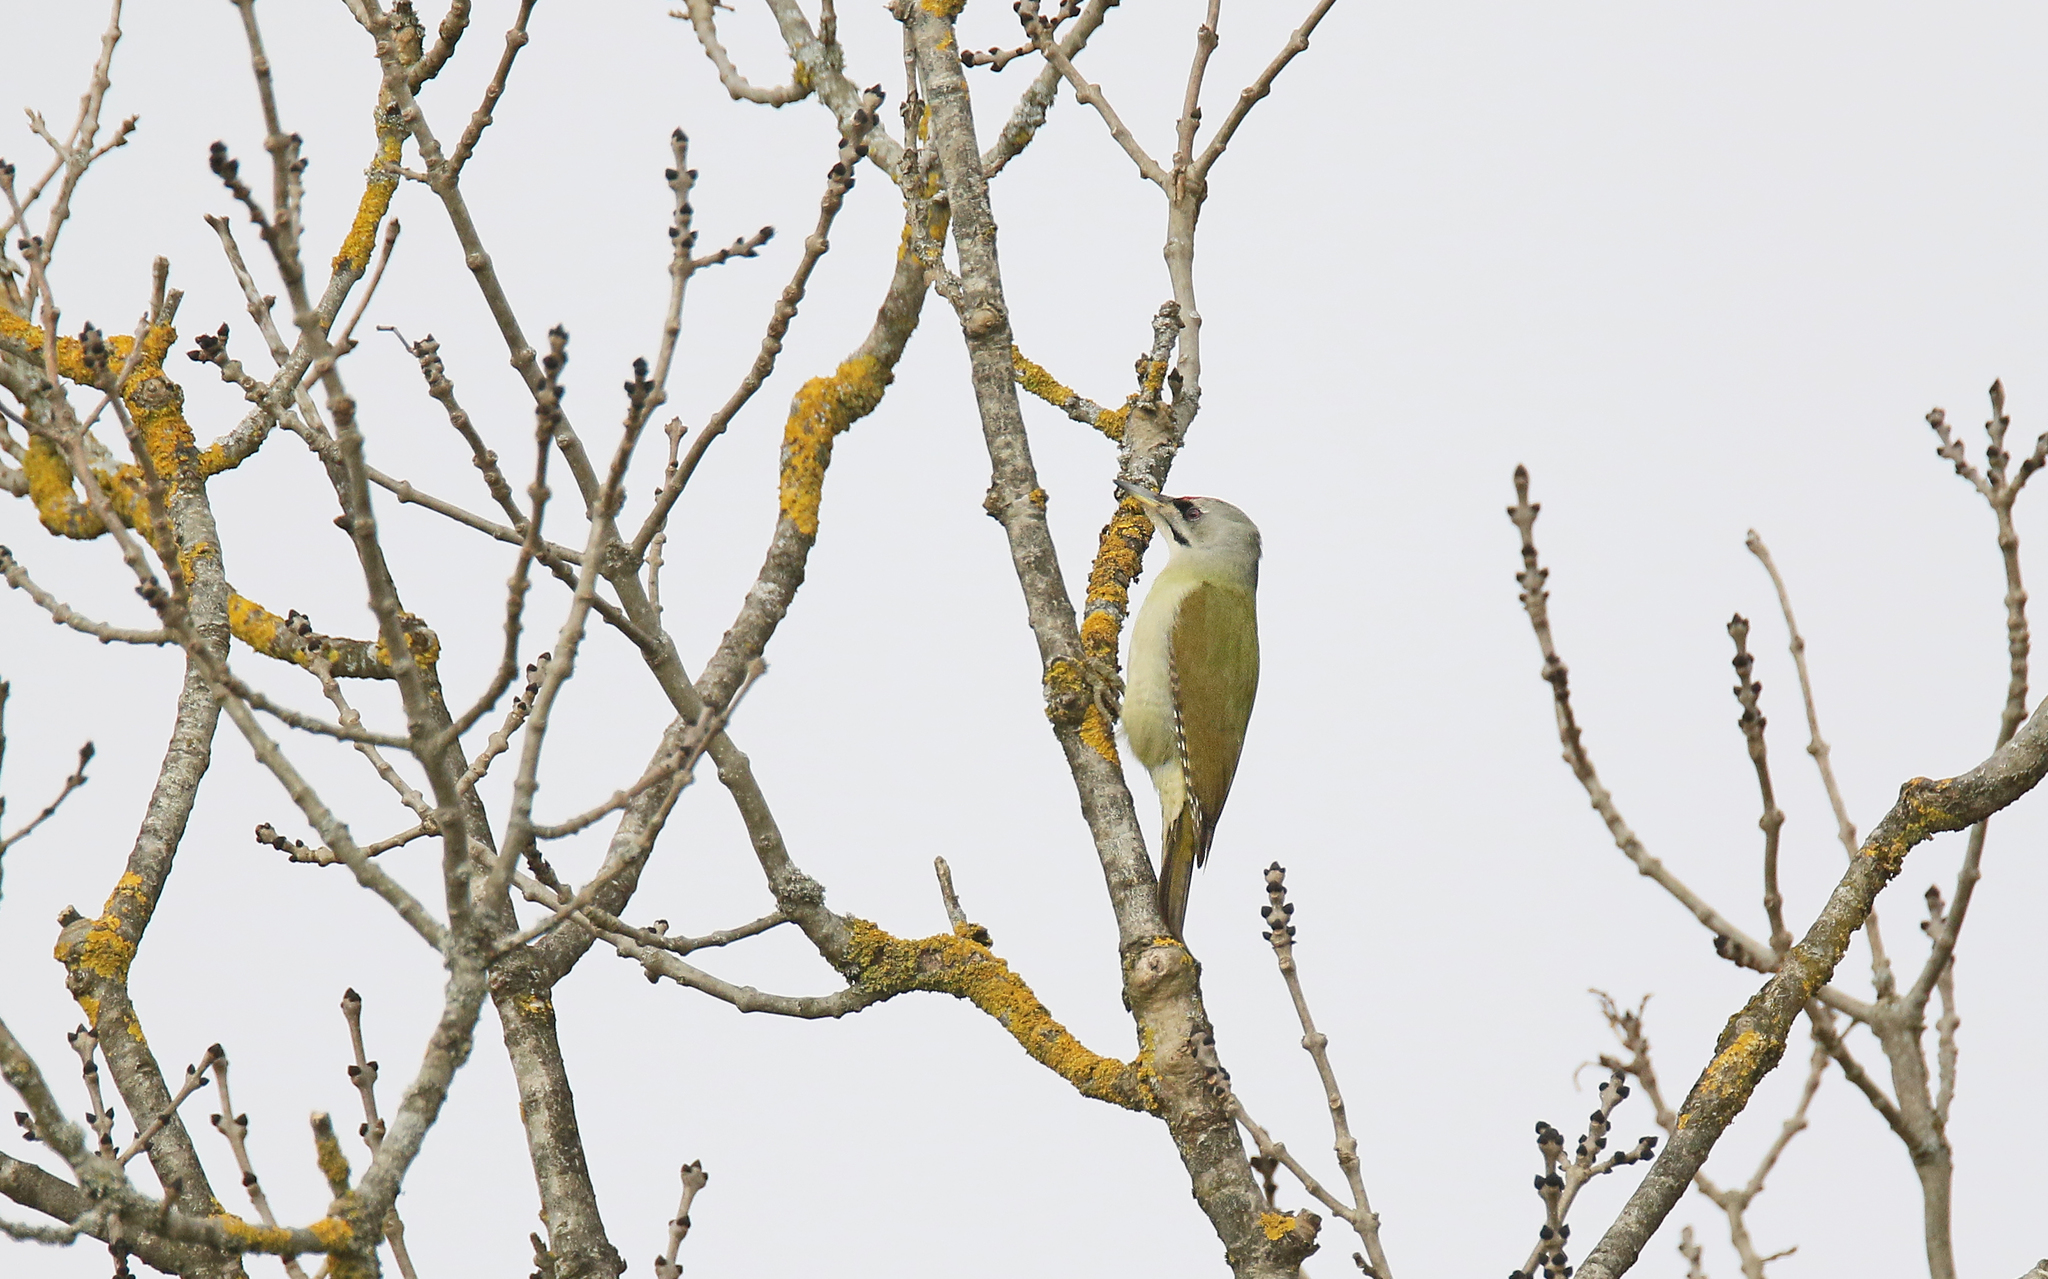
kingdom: Animalia
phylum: Chordata
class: Aves
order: Piciformes
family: Picidae
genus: Picus
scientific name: Picus canus
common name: Grey-headed woodpecker
